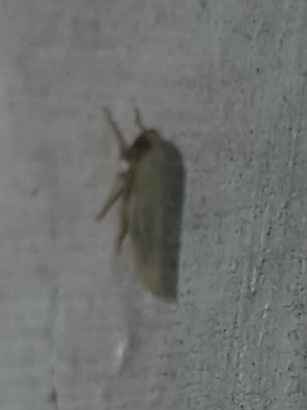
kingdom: Animalia
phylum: Arthropoda
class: Insecta
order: Hemiptera
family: Cicadellidae
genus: Graminella
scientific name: Graminella nigrifrons
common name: Blackfaced leafhopper
